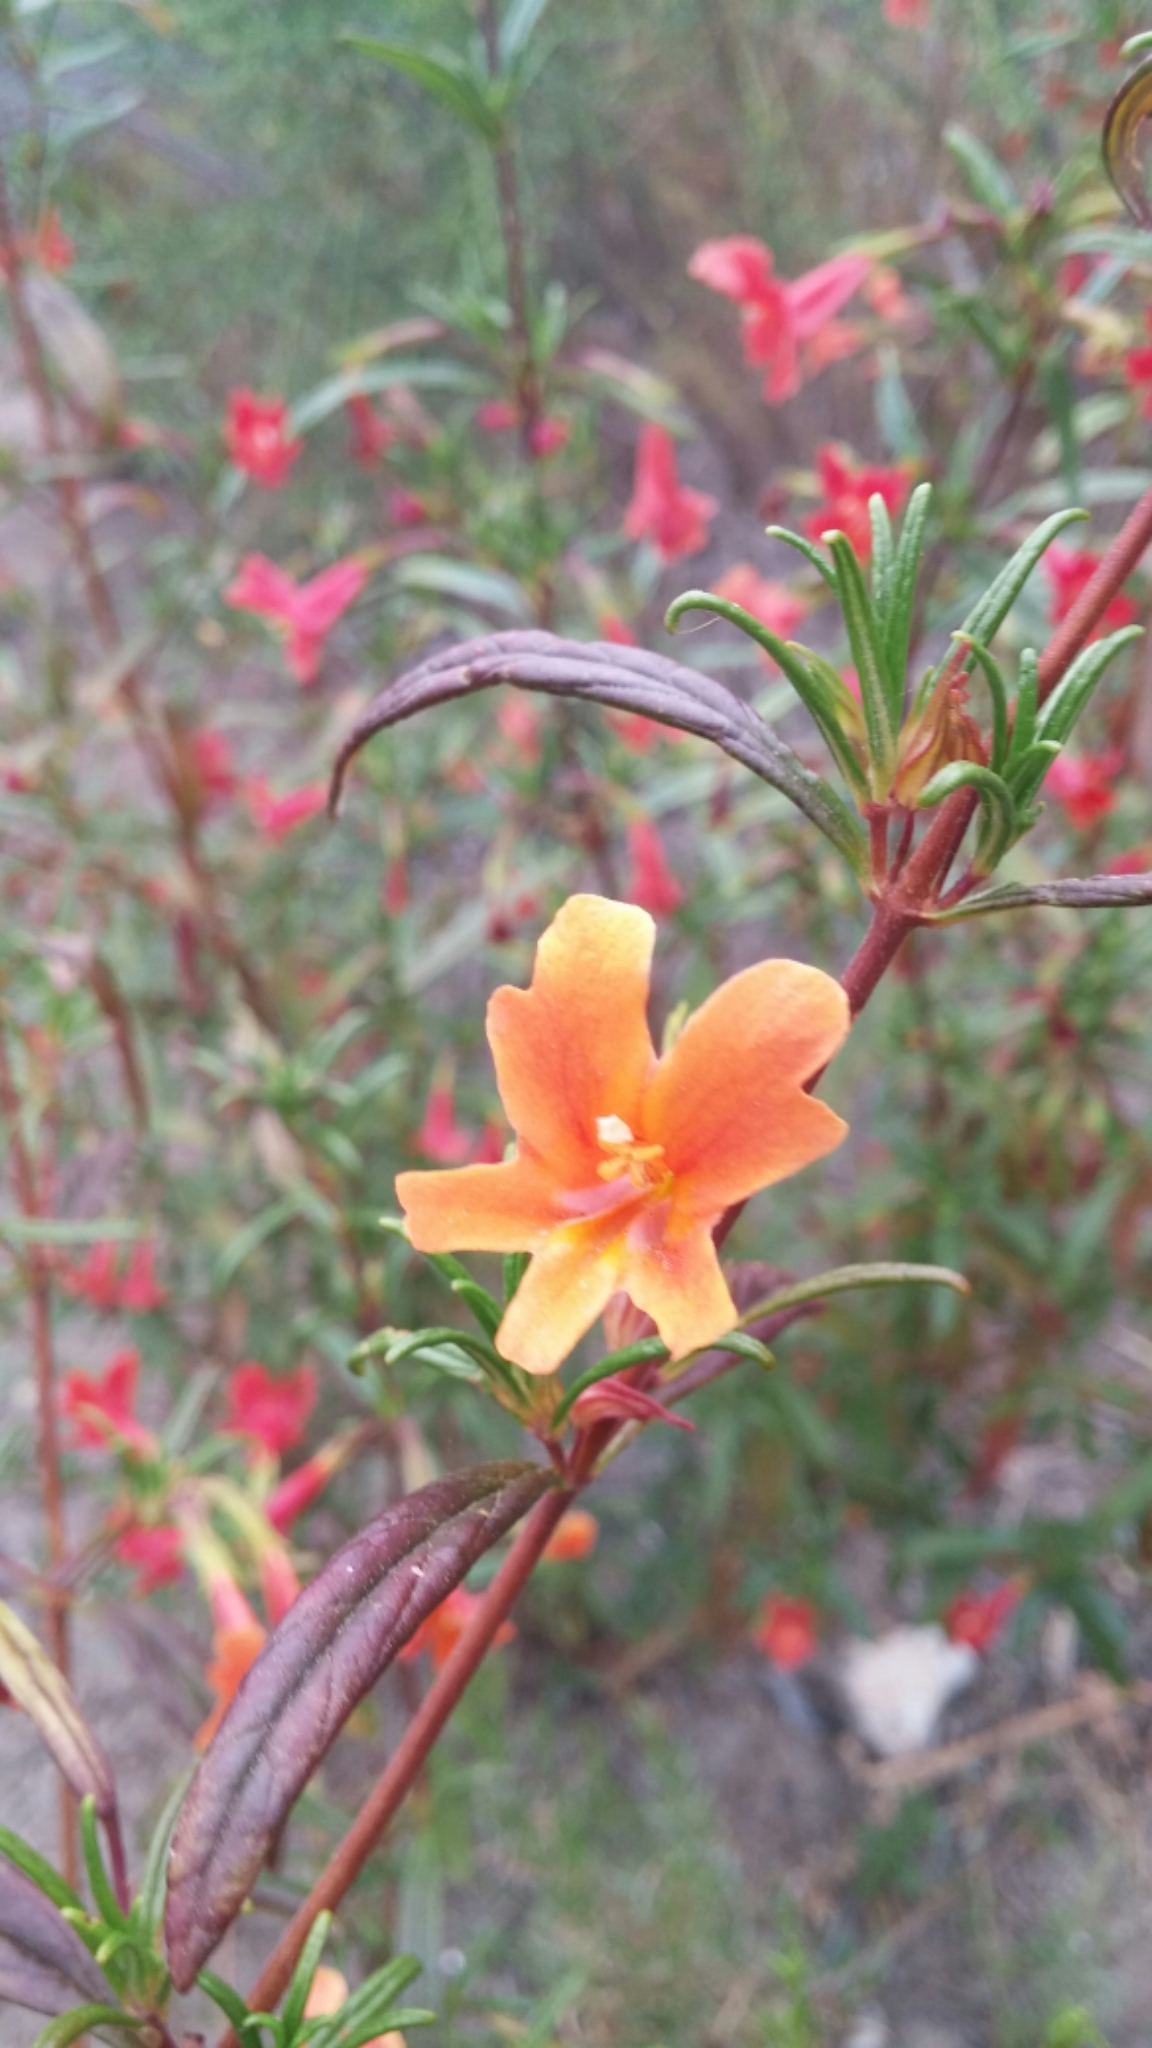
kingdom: Plantae
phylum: Tracheophyta
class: Magnoliopsida
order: Lamiales
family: Phrymaceae
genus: Diplacus
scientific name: Diplacus australis
